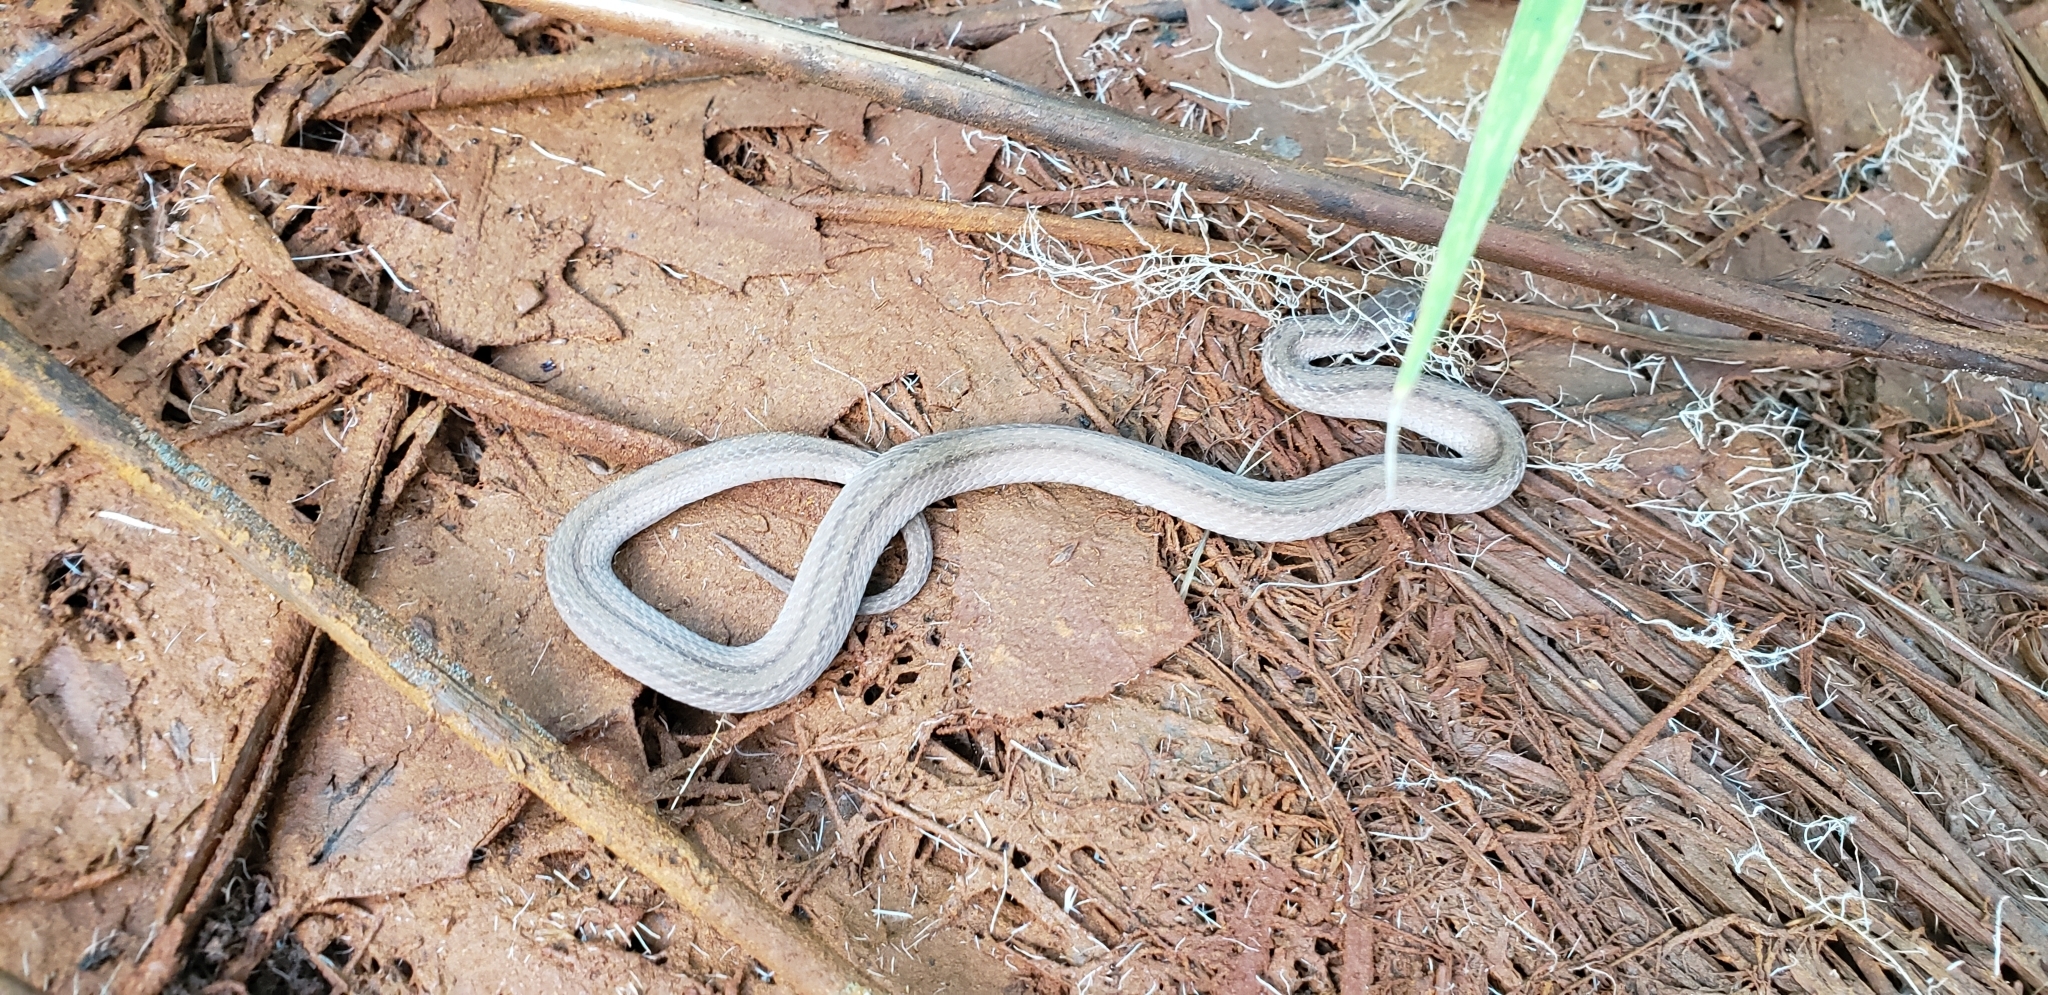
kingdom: Animalia
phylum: Chordata
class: Squamata
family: Colubridae
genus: Storeria
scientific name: Storeria dekayi
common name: (dekay’s) brown snake
